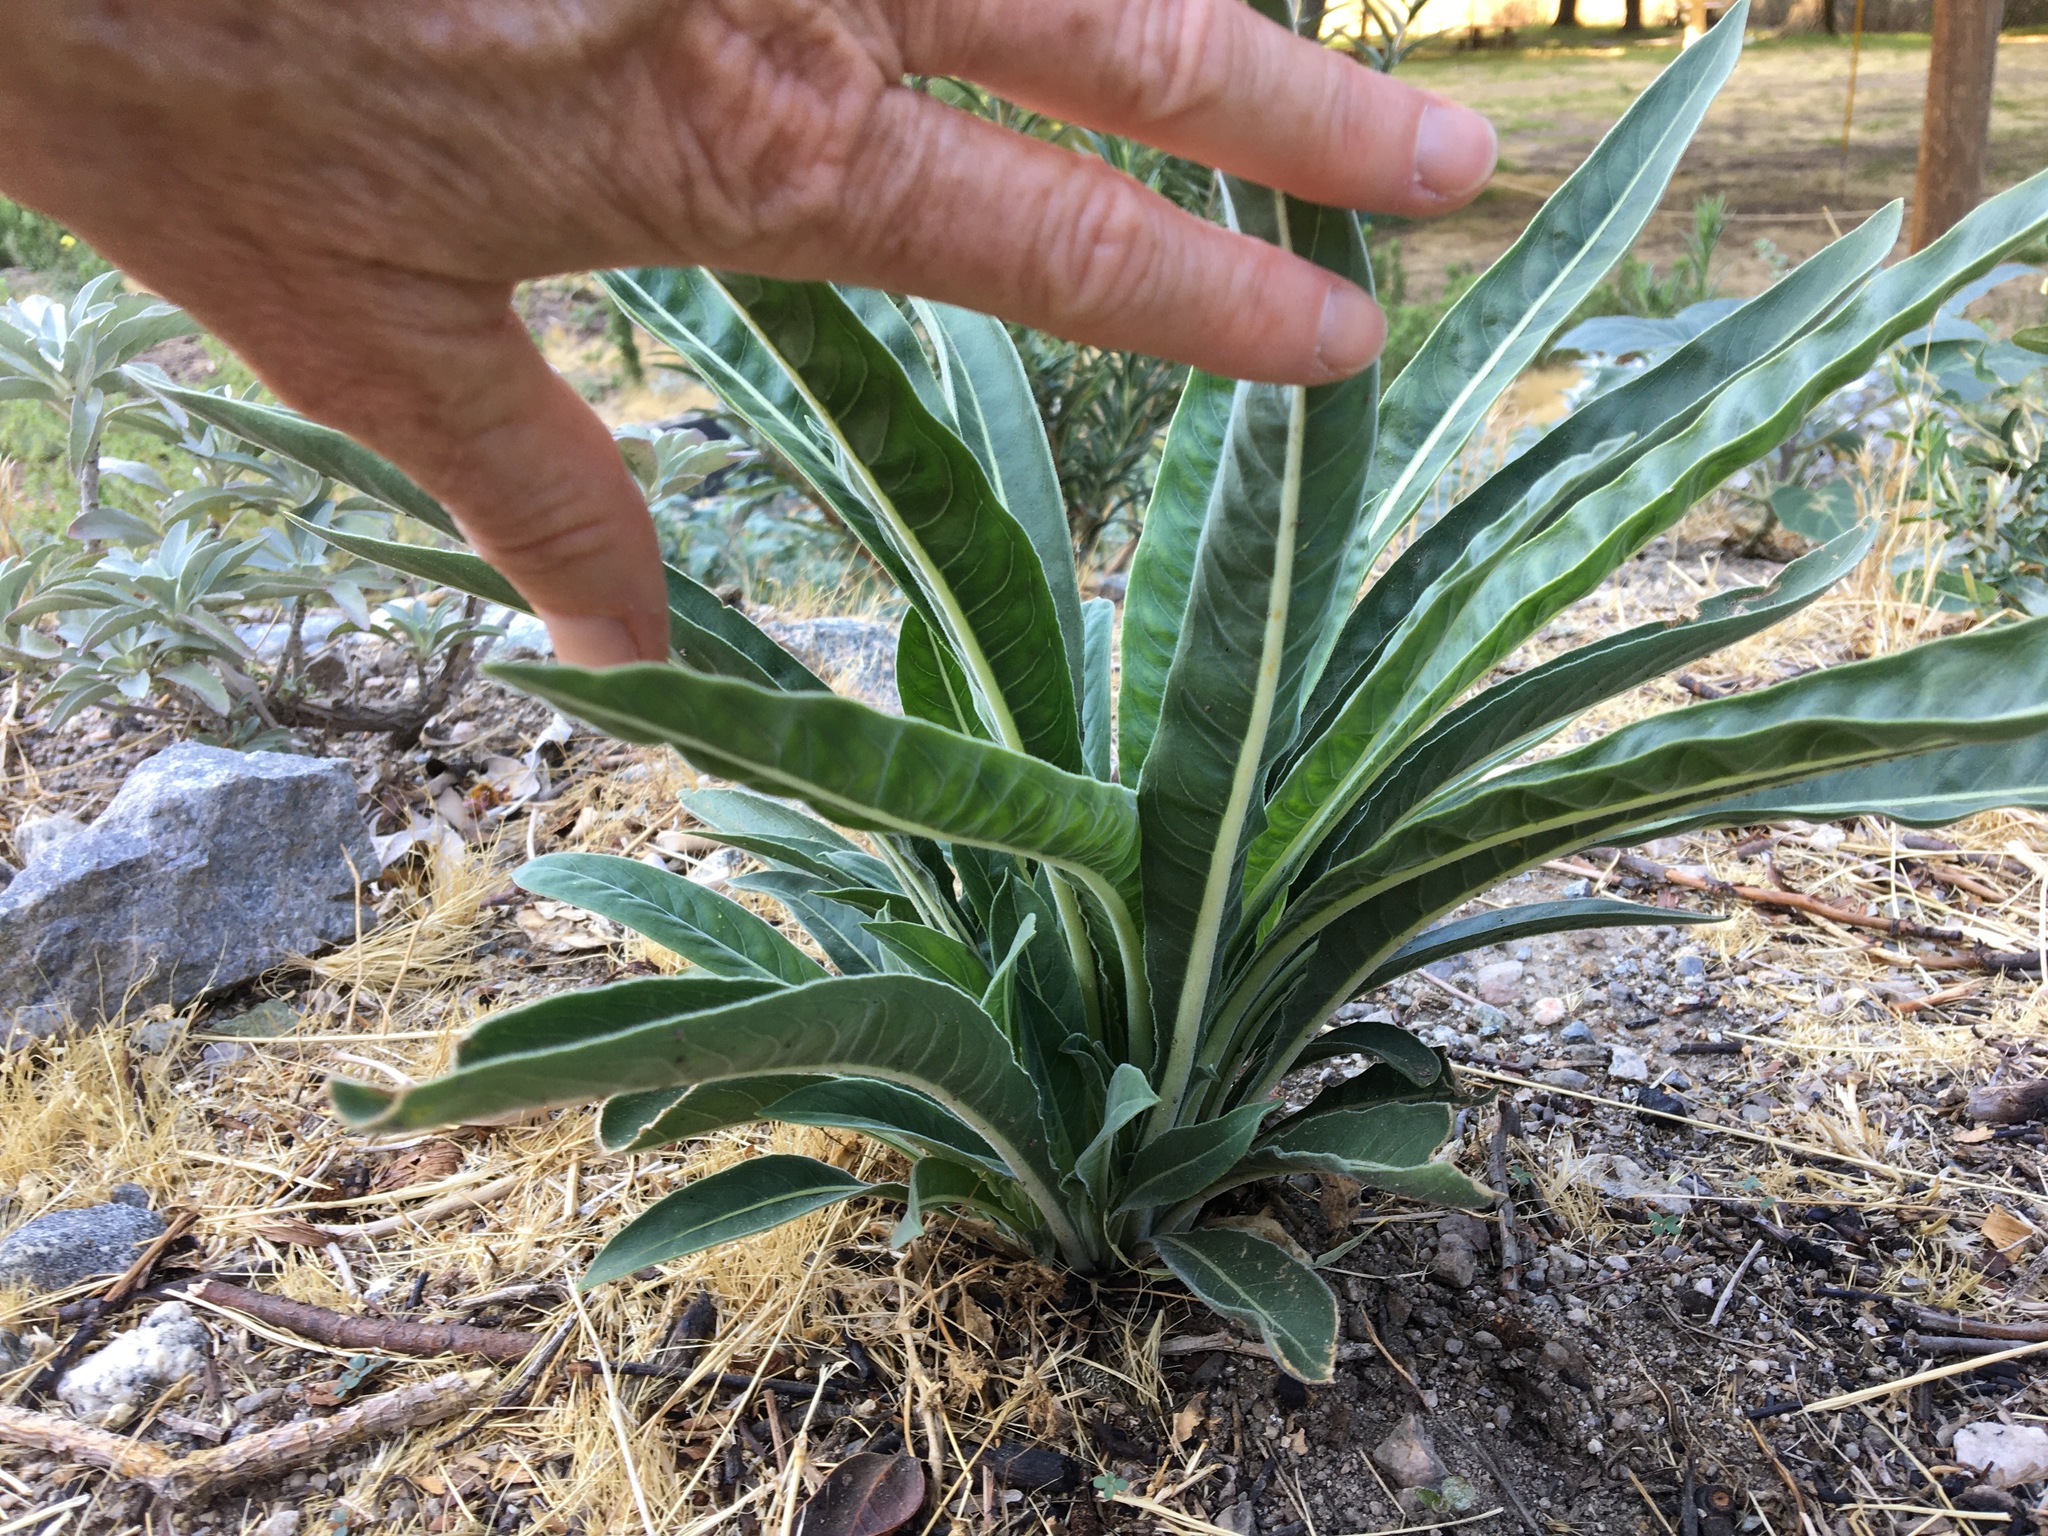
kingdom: Plantae
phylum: Tracheophyta
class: Magnoliopsida
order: Myrtales
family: Onagraceae
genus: Oenothera
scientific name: Oenothera elata
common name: Hooker's evening-primrose
